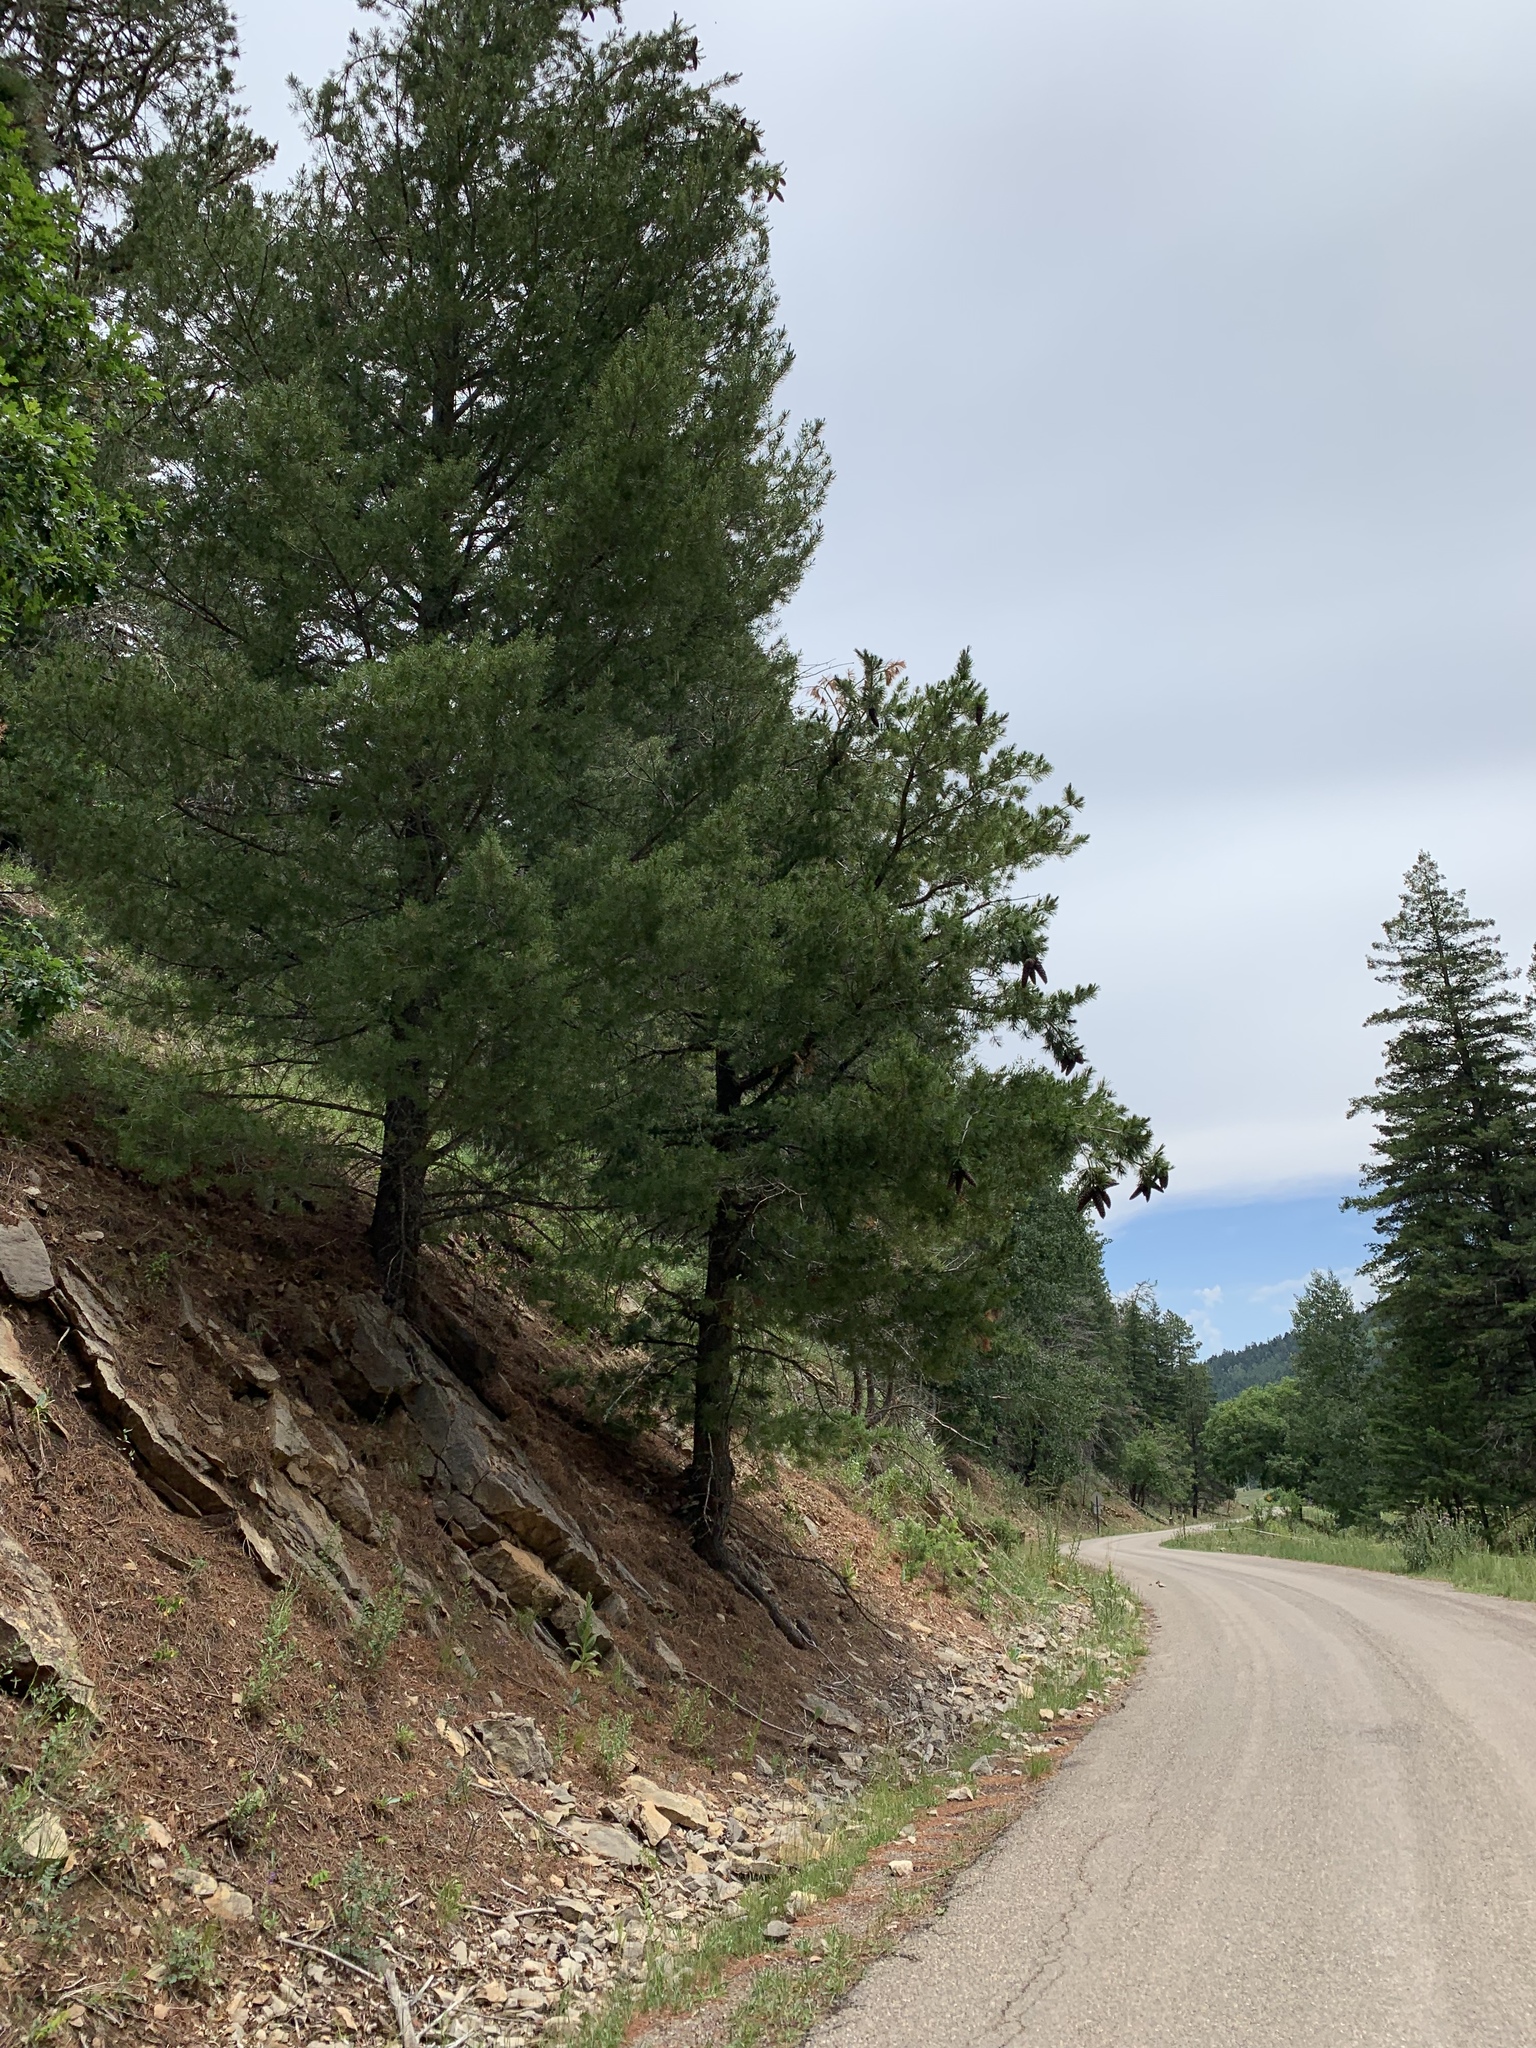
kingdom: Plantae
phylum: Tracheophyta
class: Pinopsida
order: Pinales
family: Pinaceae
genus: Pinus
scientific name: Pinus strobiformis
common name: Southwestern white pine
